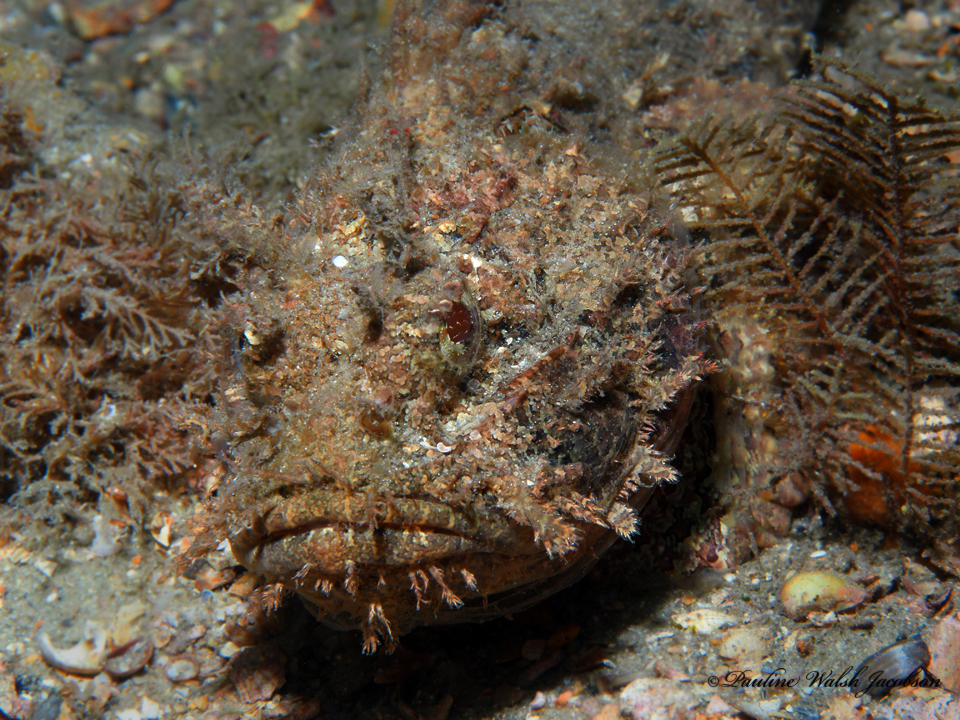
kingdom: Animalia
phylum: Chordata
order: Scorpaeniformes
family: Scorpaenidae
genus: Scorpaena
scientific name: Scorpaena plumieri
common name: Spotted scorpionfish
